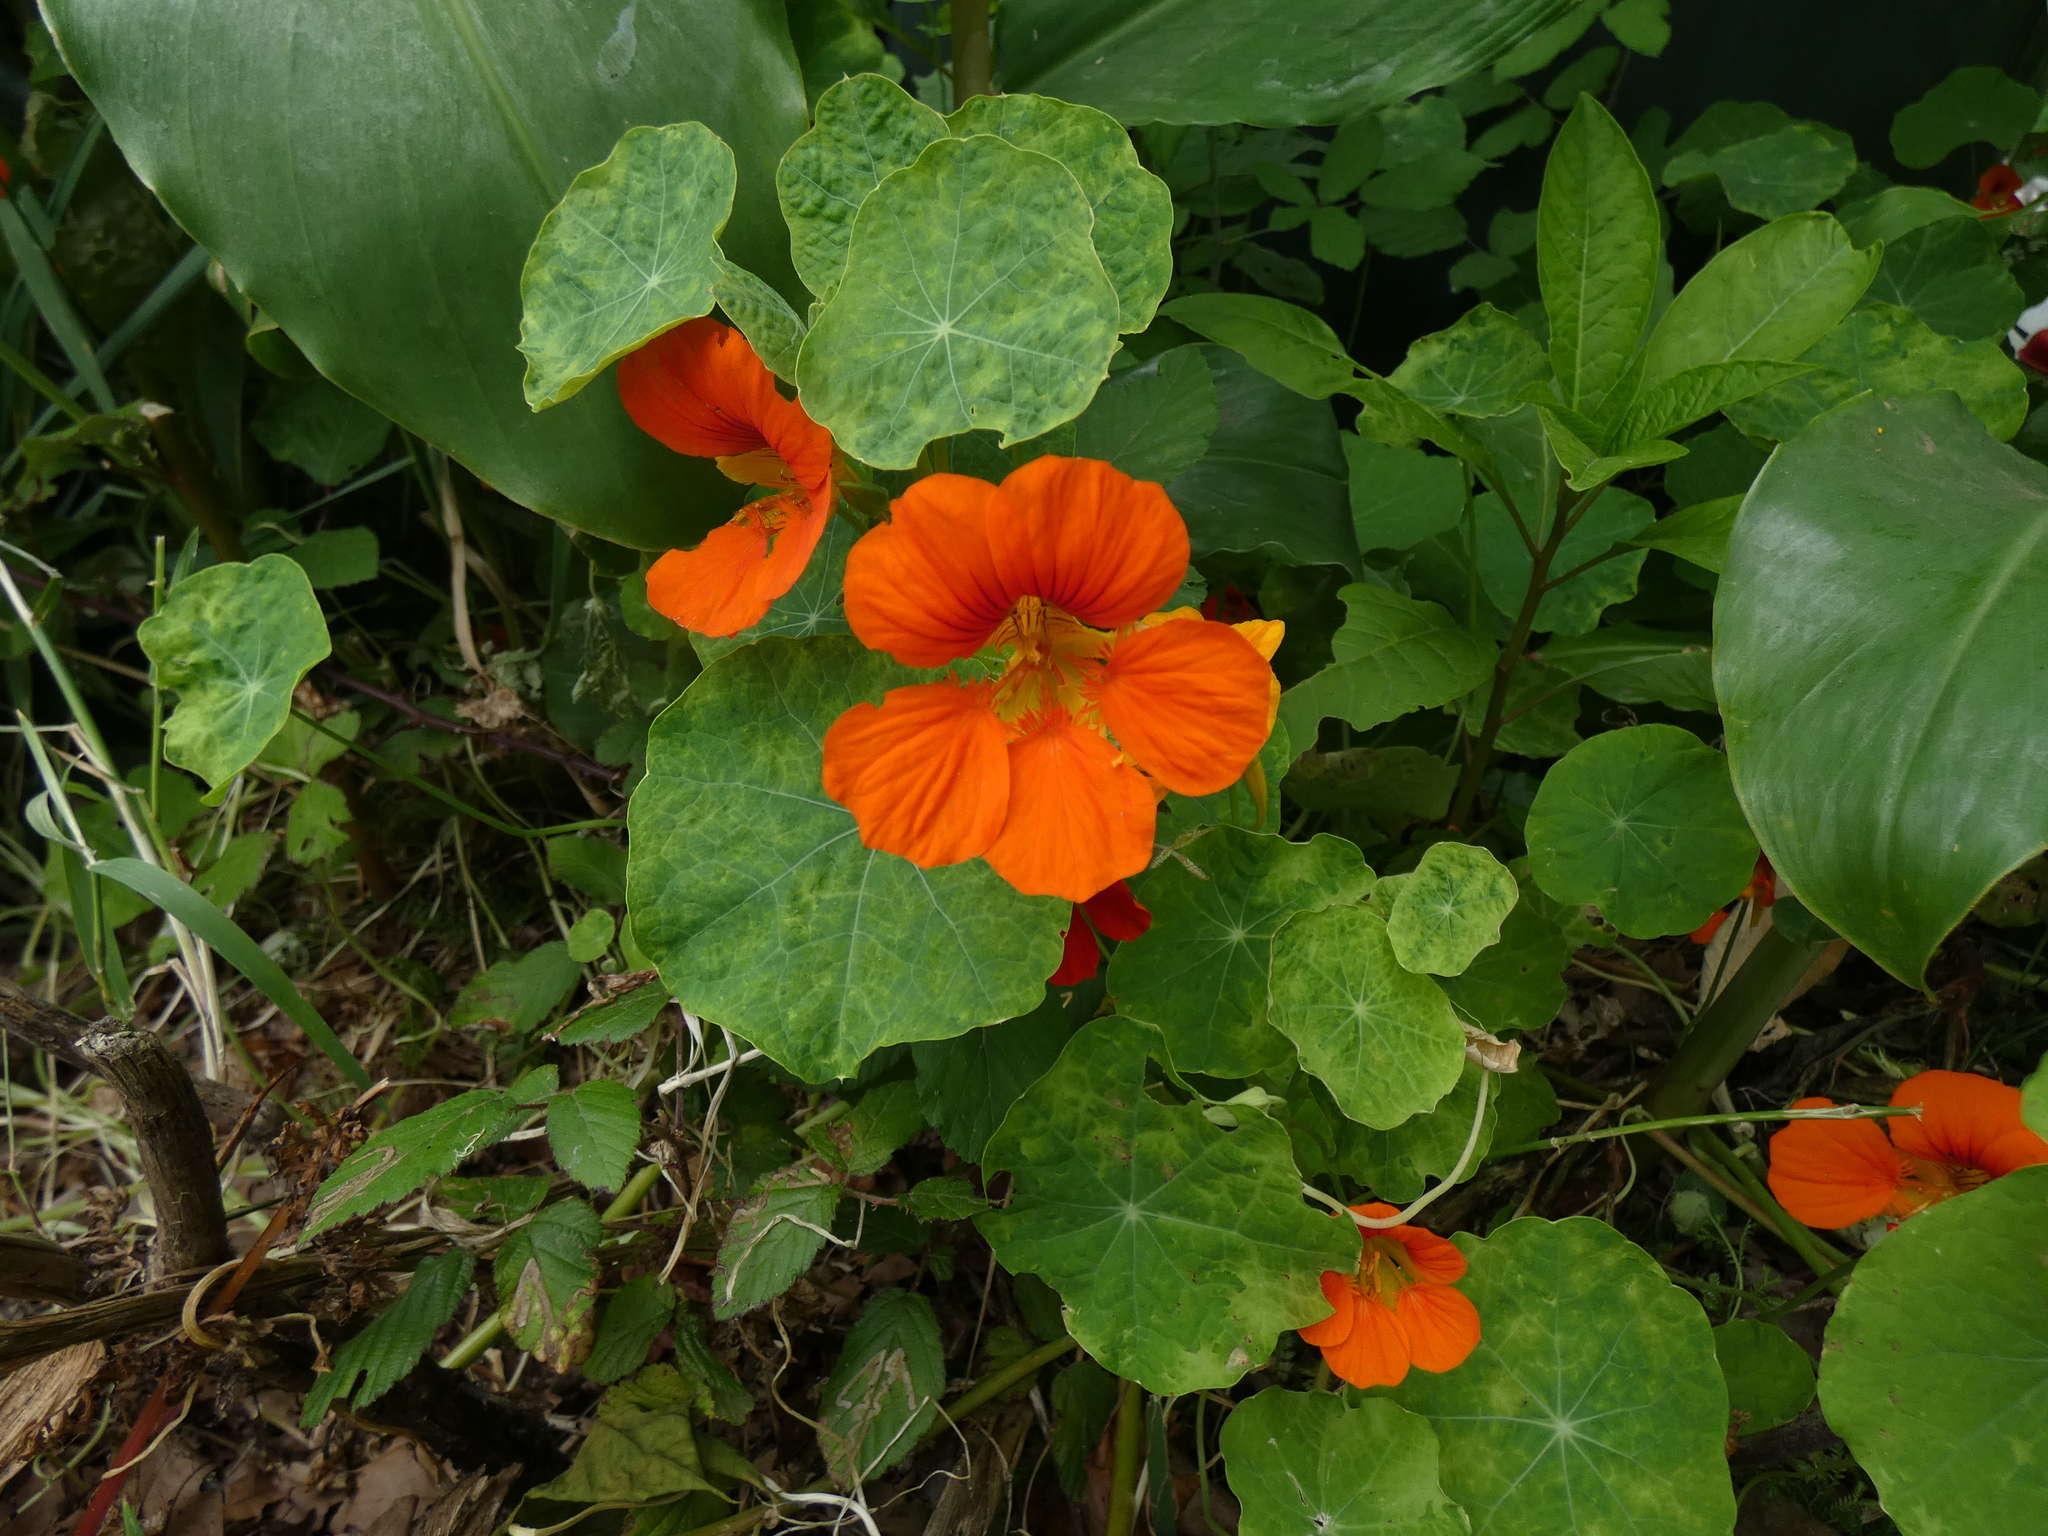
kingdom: Plantae
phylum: Tracheophyta
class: Magnoliopsida
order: Brassicales
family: Tropaeolaceae
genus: Tropaeolum
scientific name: Tropaeolum majus
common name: Nasturtium
